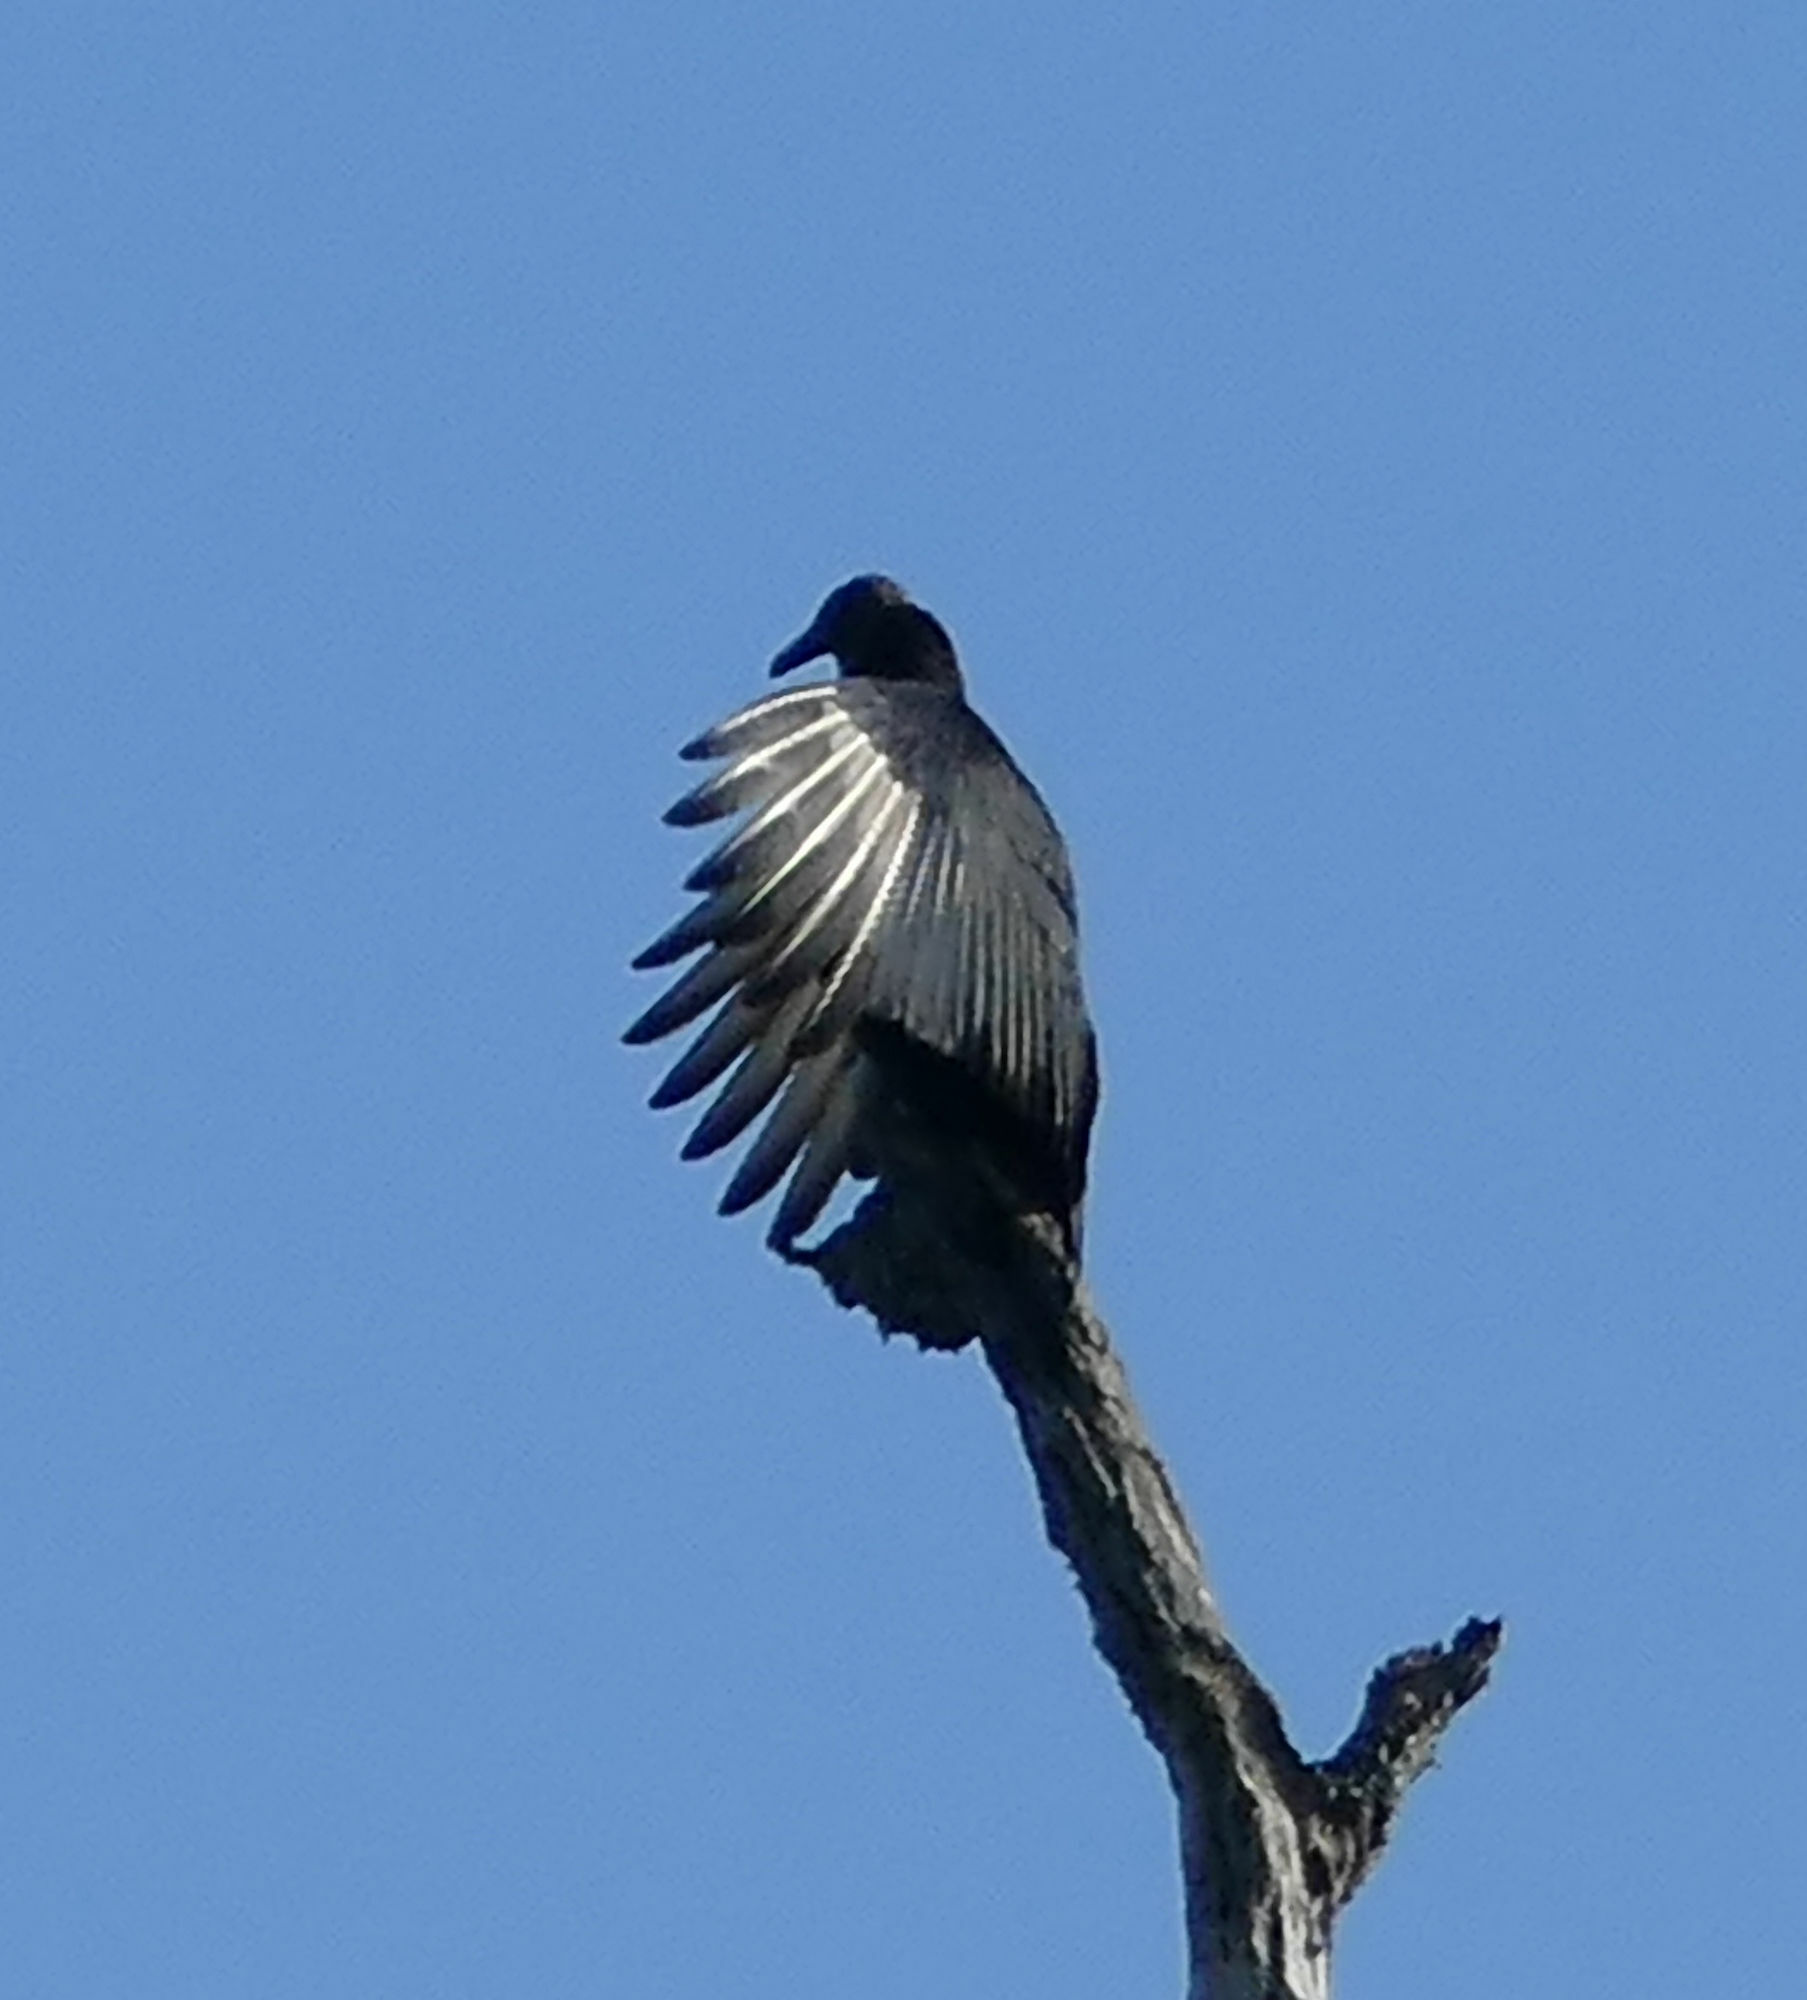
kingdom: Animalia
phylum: Chordata
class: Aves
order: Accipitriformes
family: Cathartidae
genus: Coragyps
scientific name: Coragyps atratus
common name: Black vulture
